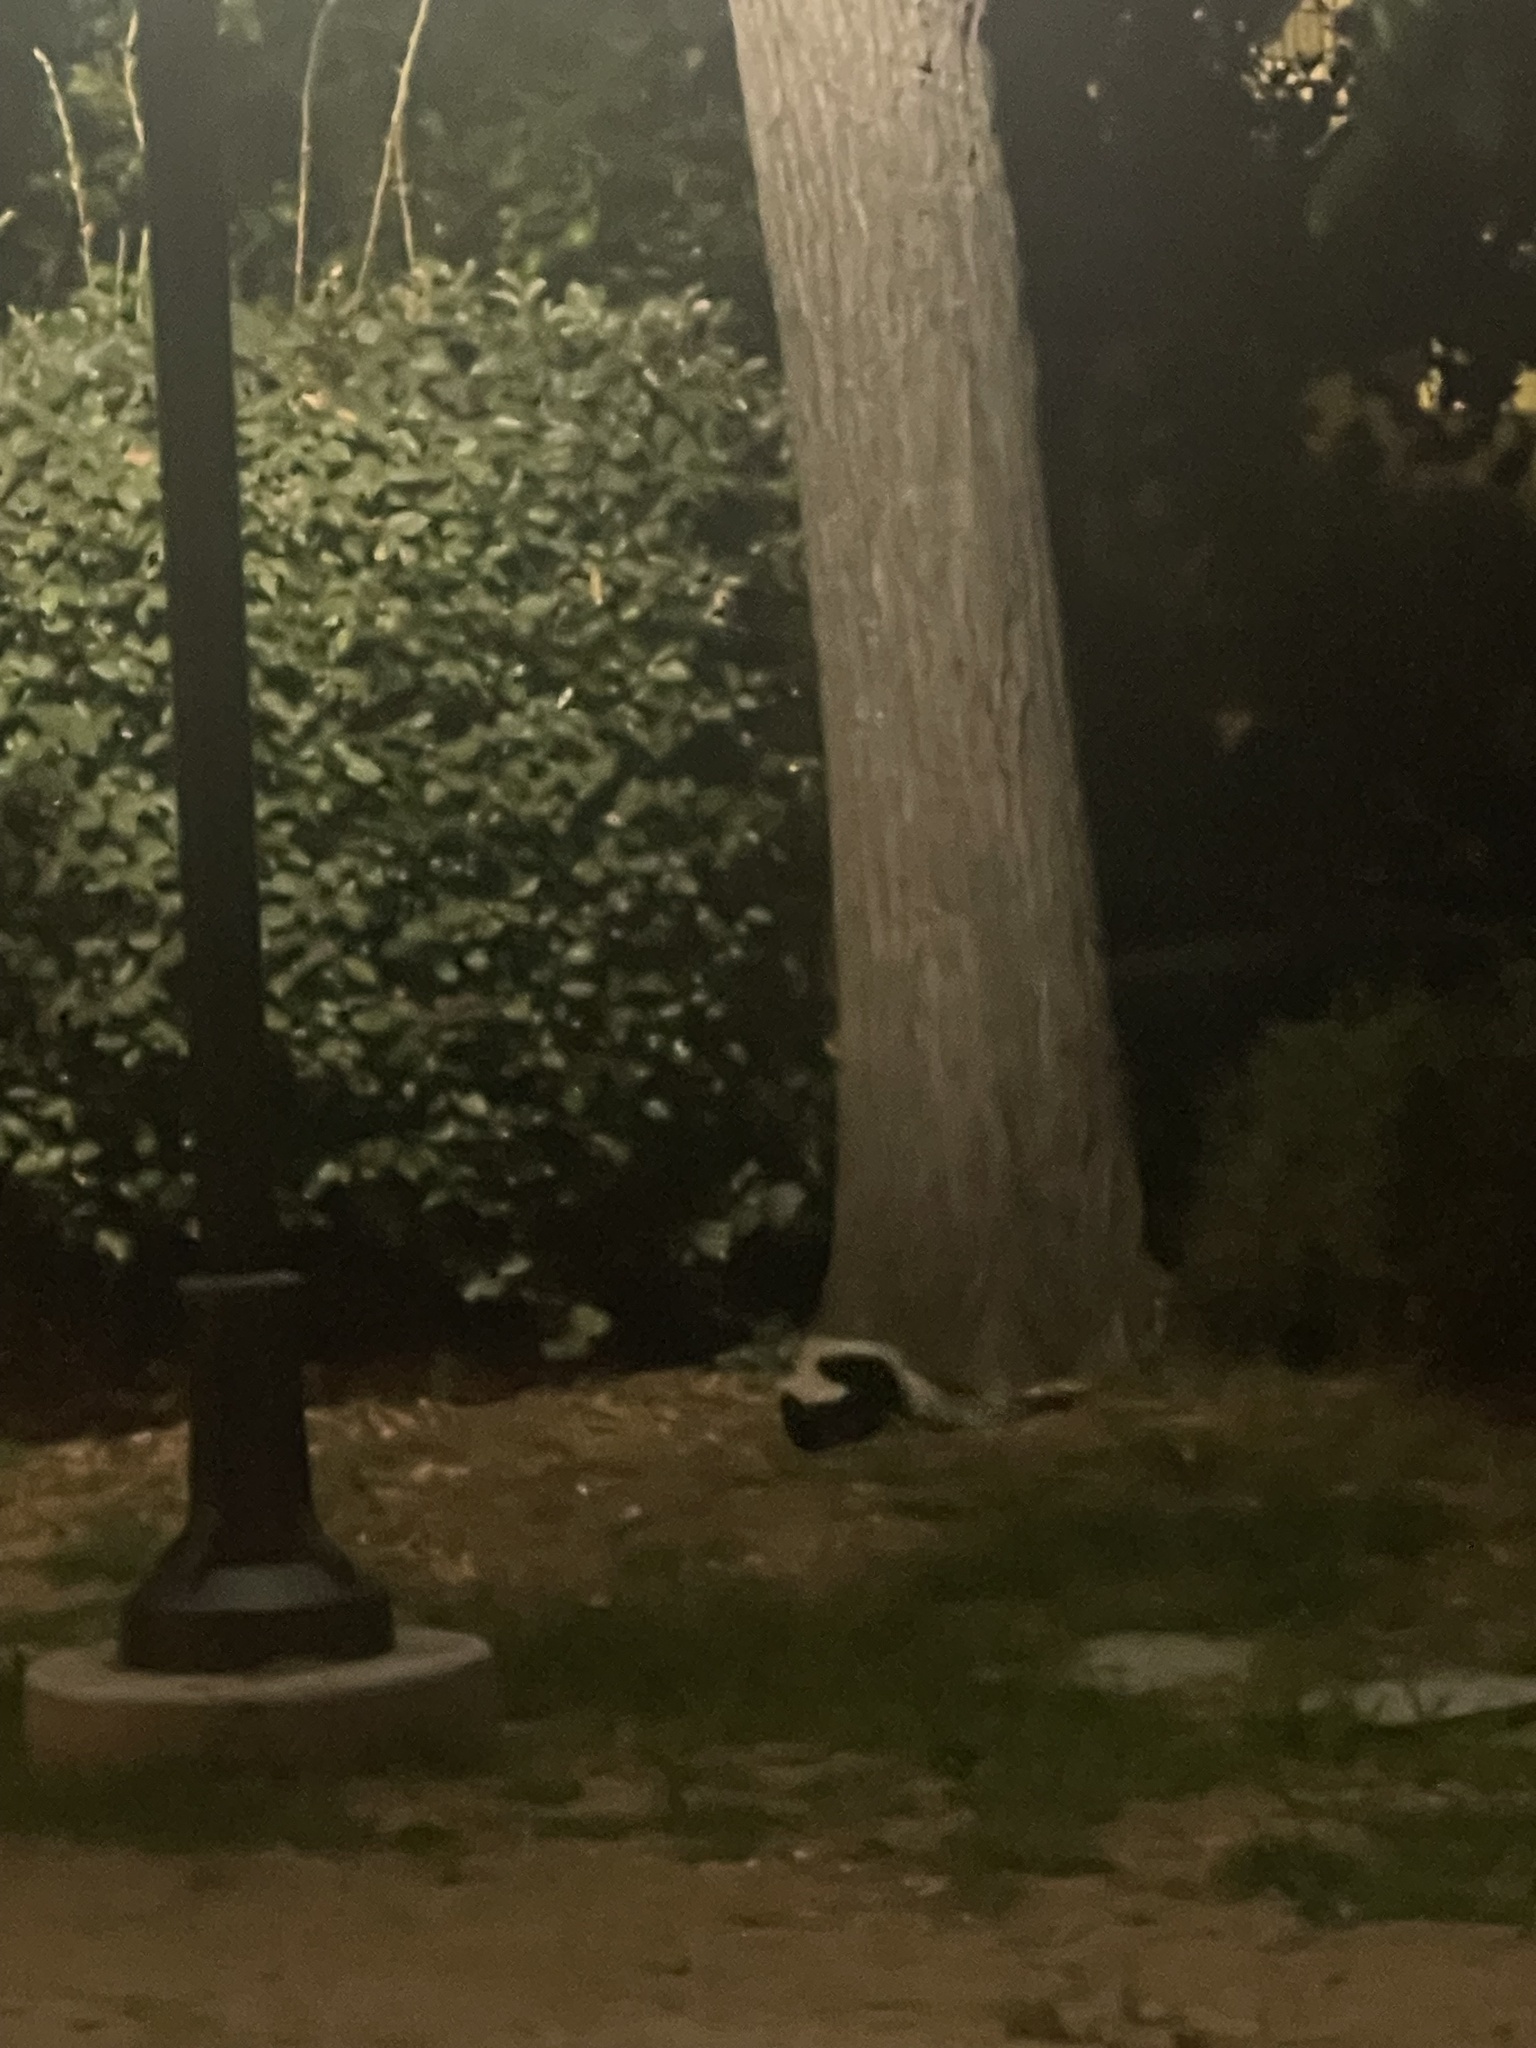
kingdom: Animalia
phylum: Chordata
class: Mammalia
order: Carnivora
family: Mephitidae
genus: Mephitis
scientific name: Mephitis mephitis
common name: Striped skunk
